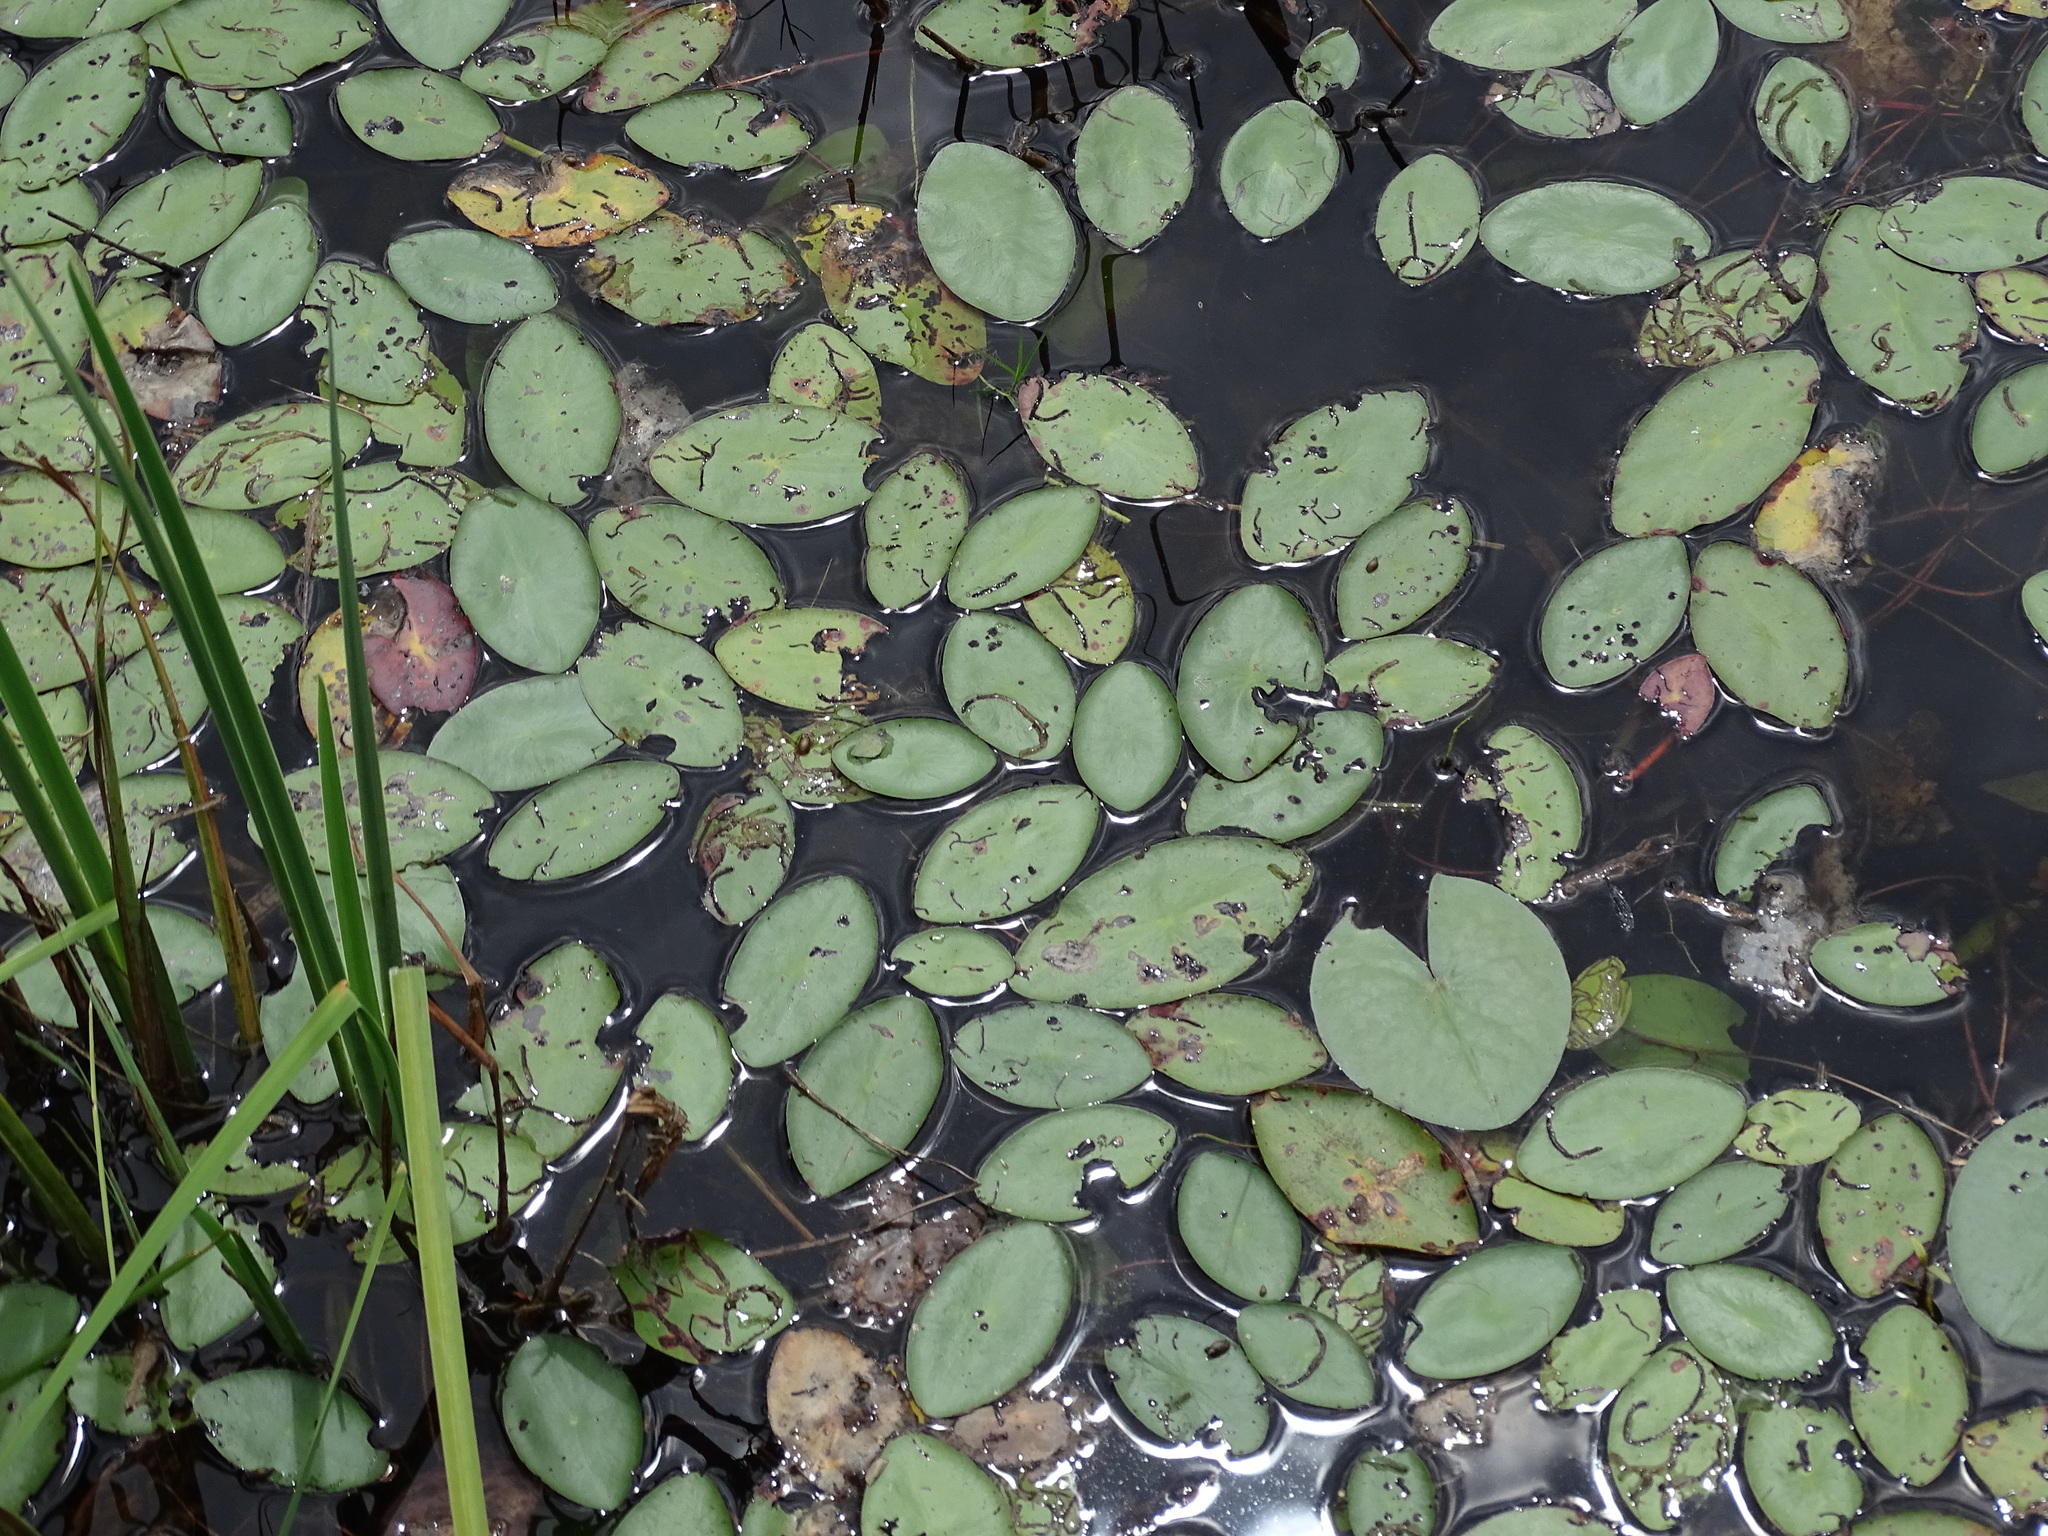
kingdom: Plantae
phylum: Tracheophyta
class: Magnoliopsida
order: Nymphaeales
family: Cabombaceae
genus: Brasenia
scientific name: Brasenia schreberi
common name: Water-shield
